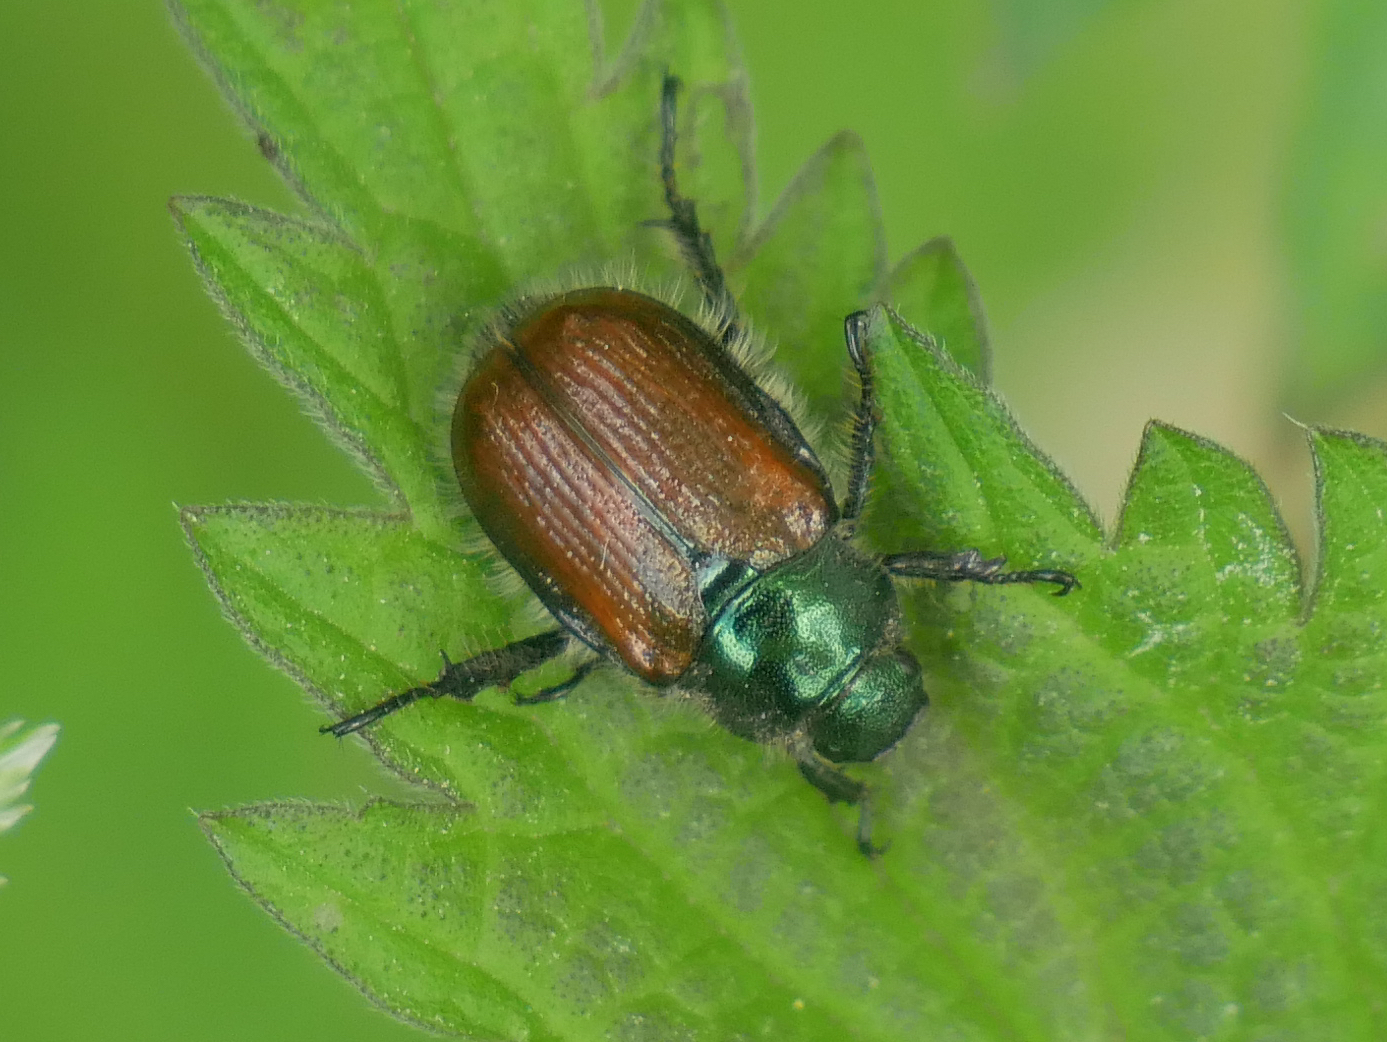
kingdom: Animalia
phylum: Arthropoda
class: Insecta
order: Coleoptera
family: Scarabaeidae
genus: Phyllopertha
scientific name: Phyllopertha horticola
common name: Garden chafer
